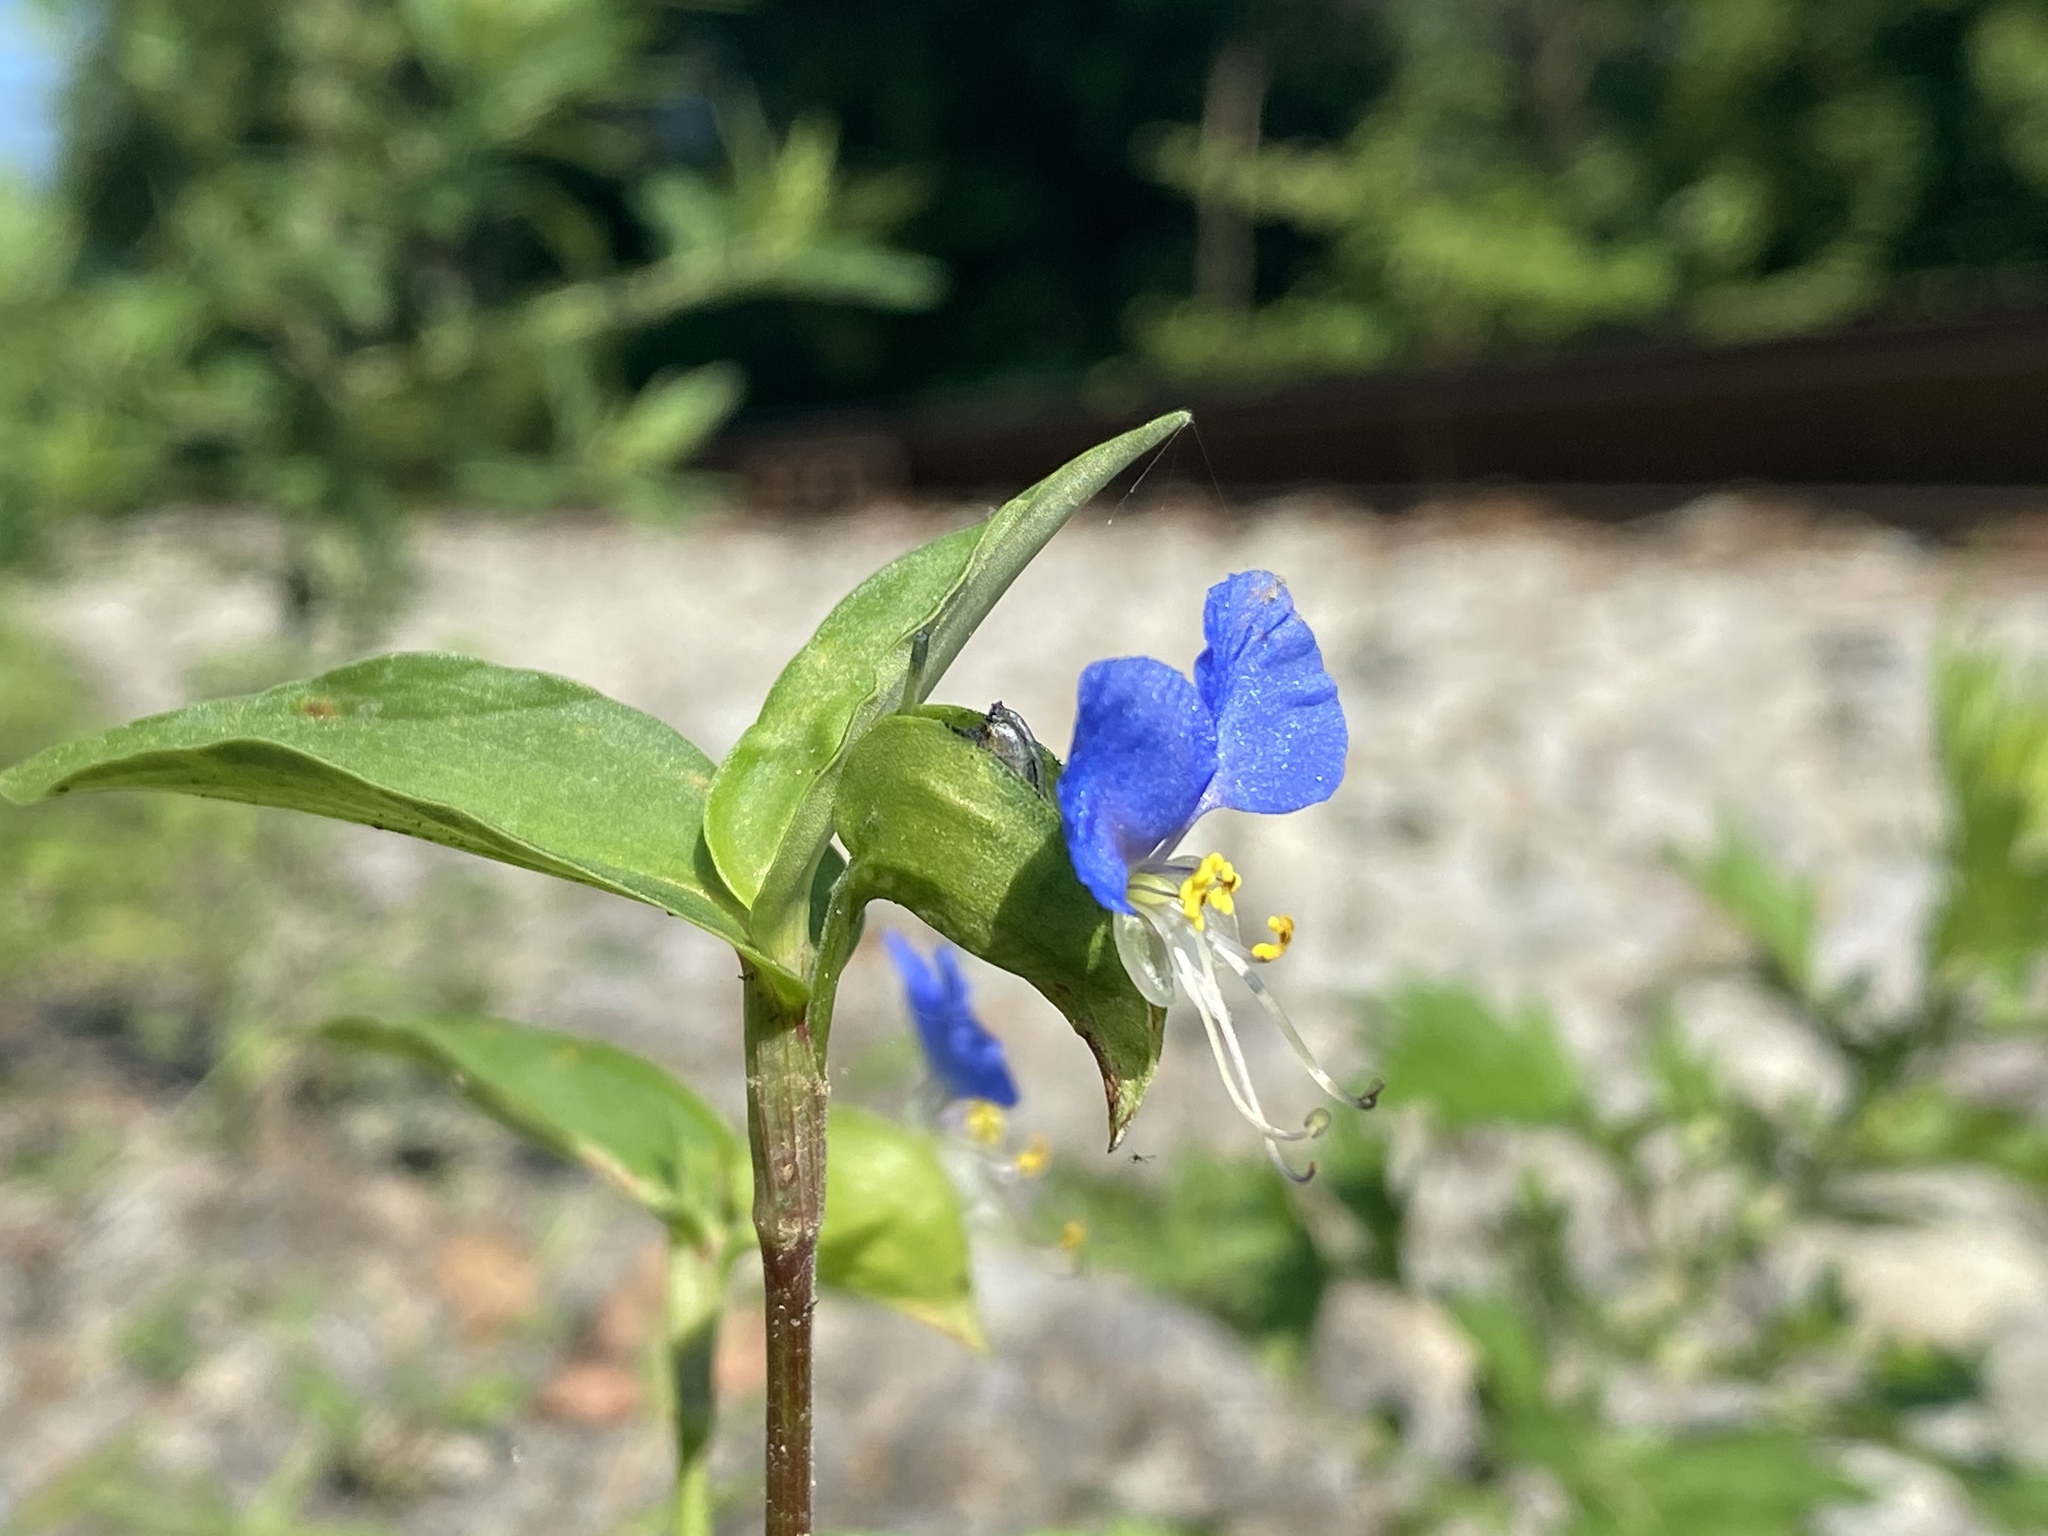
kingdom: Plantae
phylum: Tracheophyta
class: Liliopsida
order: Commelinales
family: Commelinaceae
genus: Commelina
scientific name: Commelina communis
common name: Asiatic dayflower
